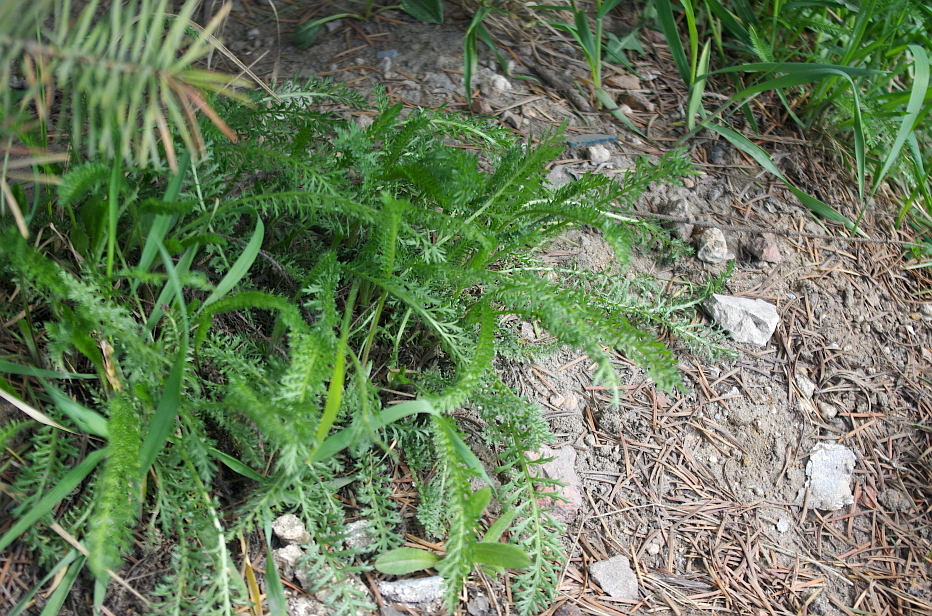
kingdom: Plantae
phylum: Tracheophyta
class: Magnoliopsida
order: Asterales
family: Asteraceae
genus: Achillea
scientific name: Achillea millefolium
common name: Yarrow
